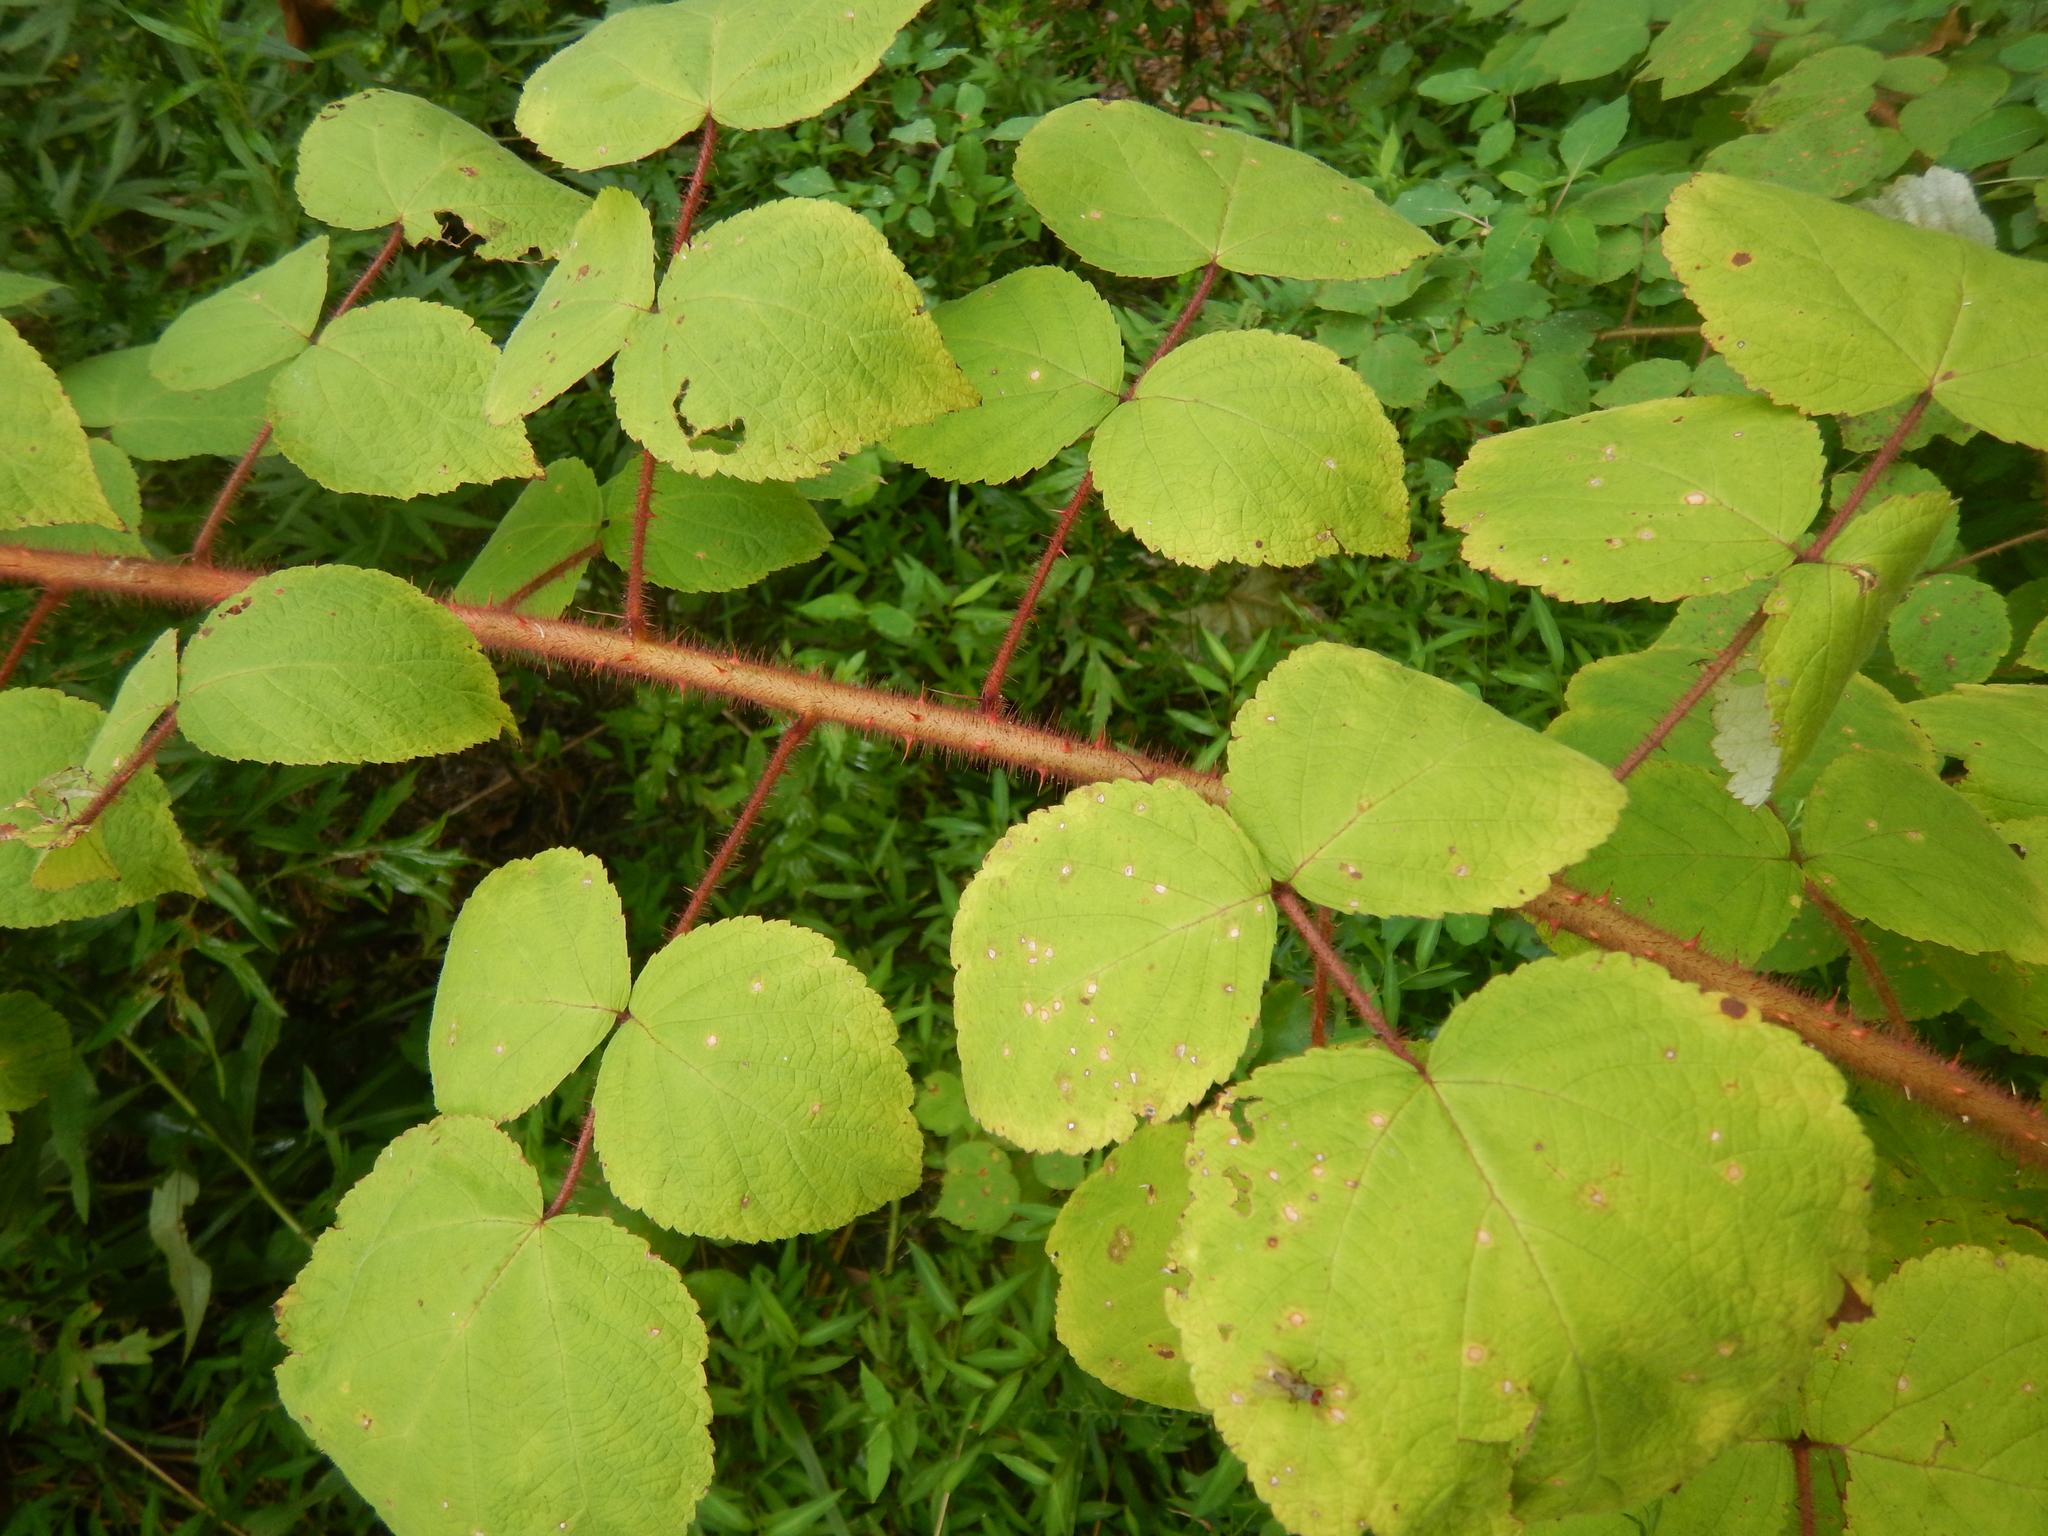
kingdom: Plantae
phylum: Tracheophyta
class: Magnoliopsida
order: Rosales
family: Rosaceae
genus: Rubus
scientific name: Rubus phoenicolasius
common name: Japanese wineberry
